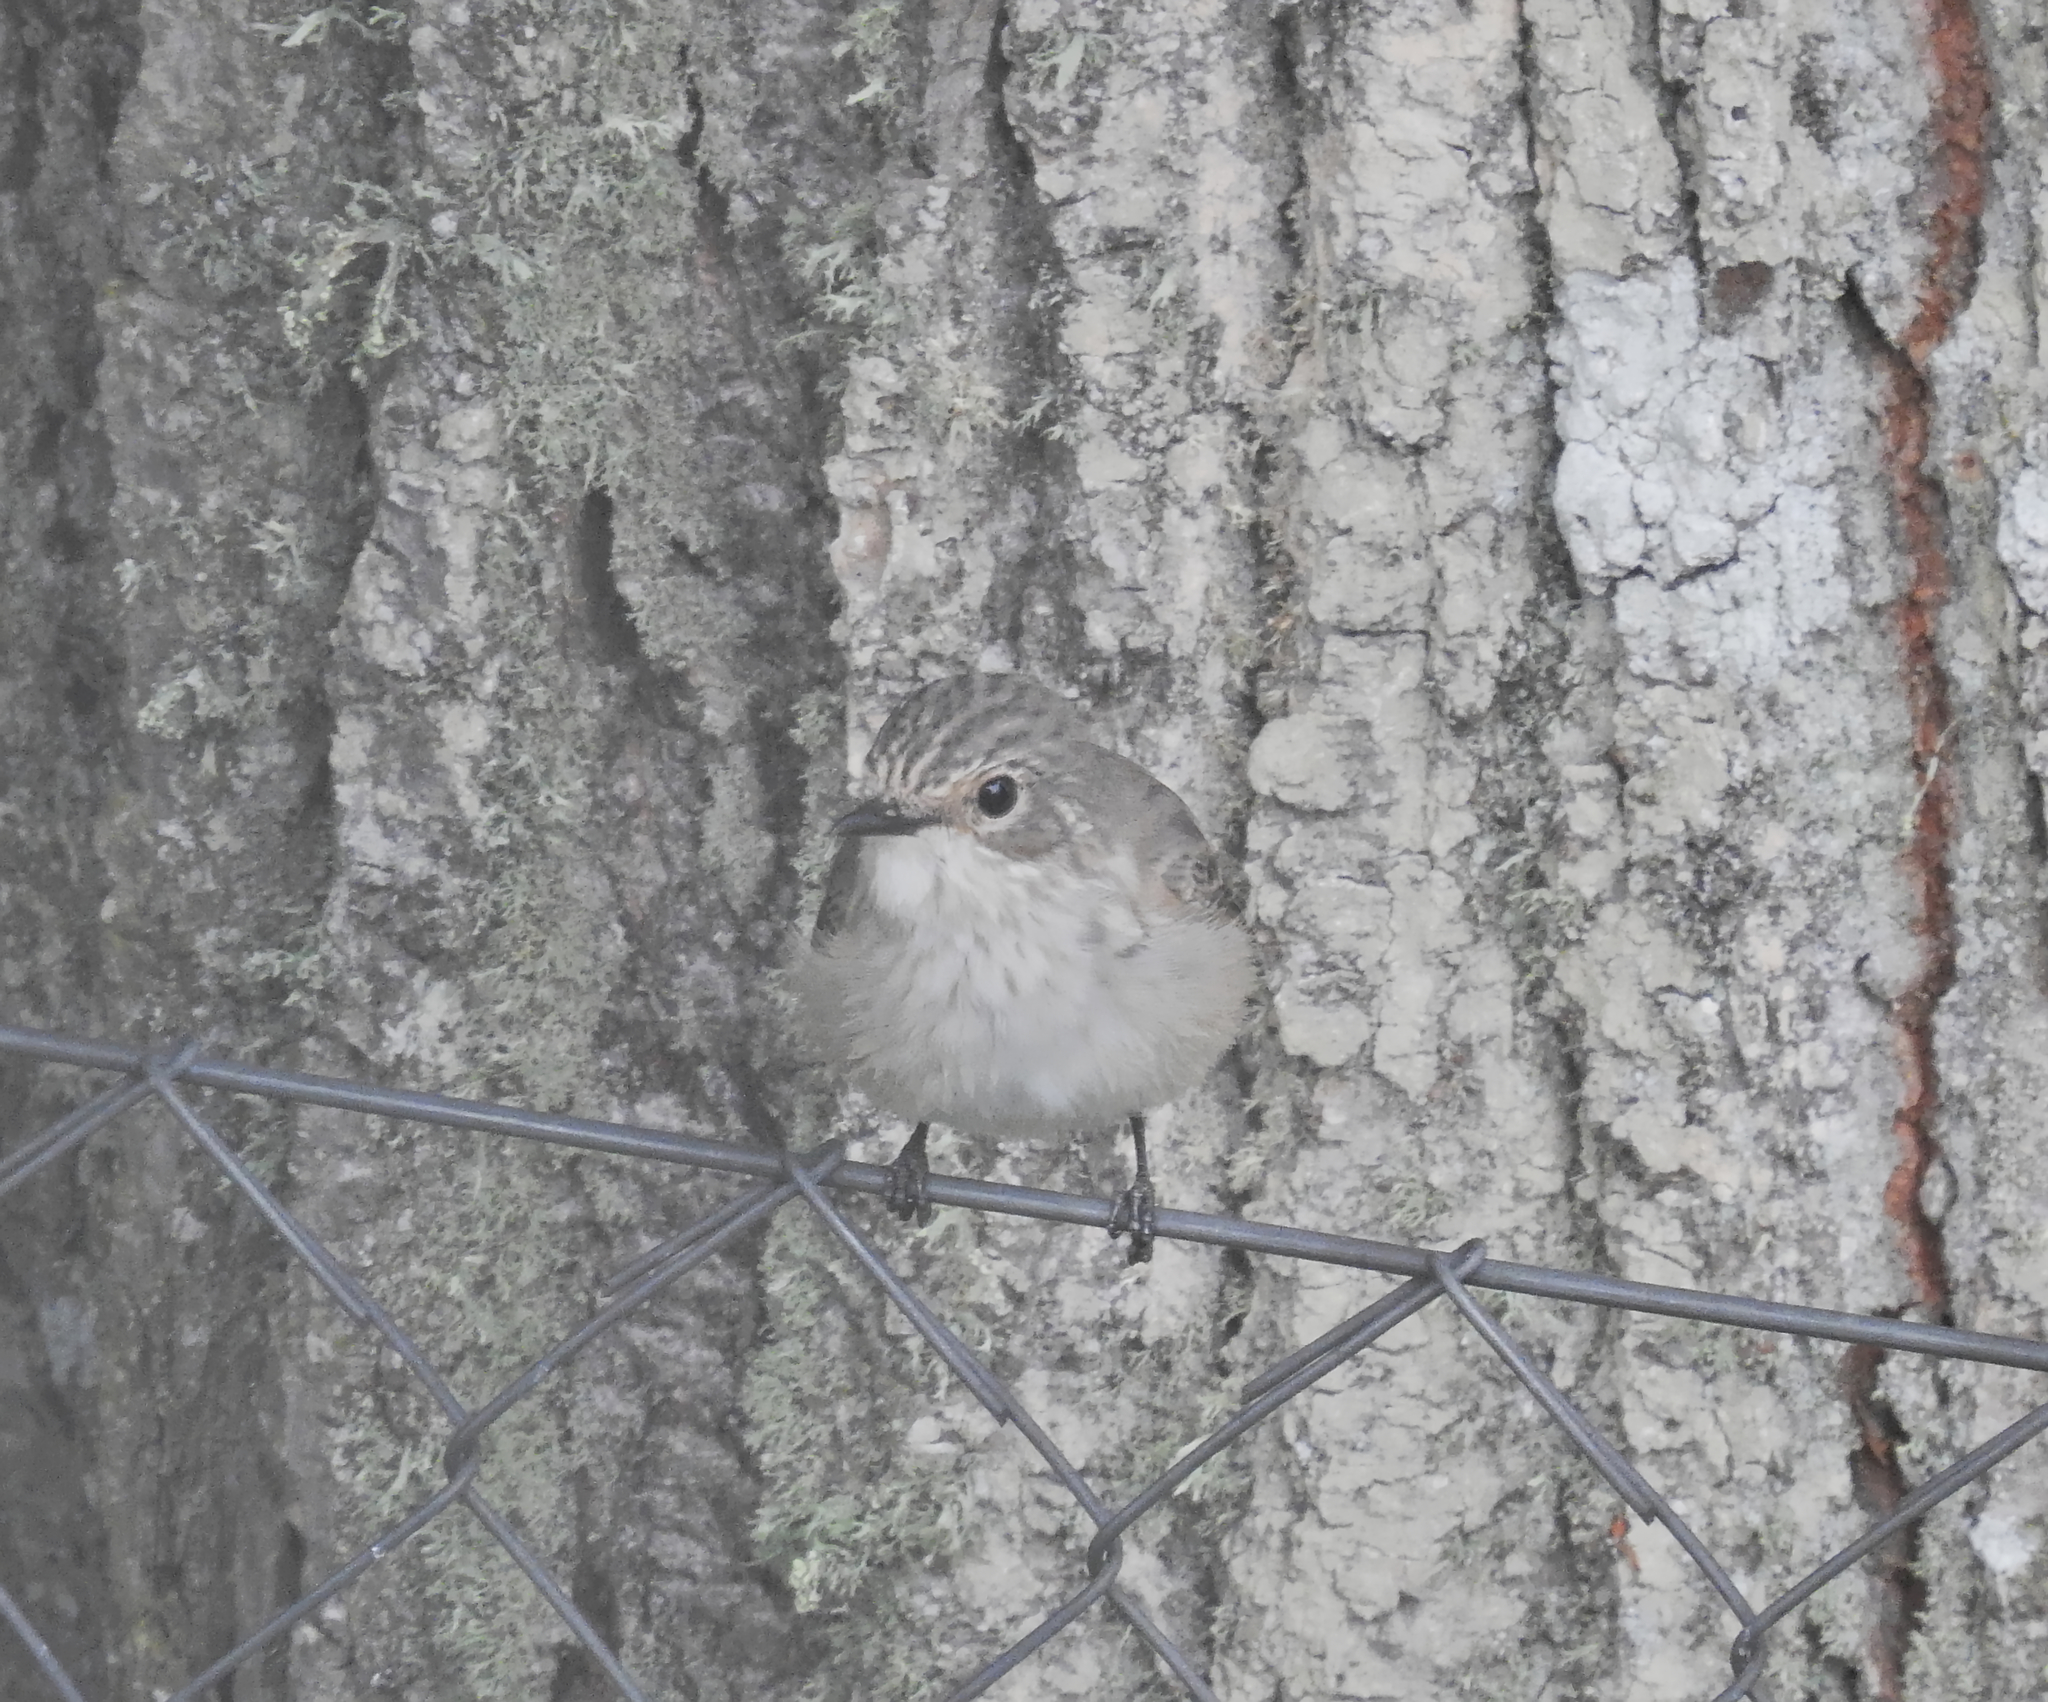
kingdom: Animalia
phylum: Chordata
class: Aves
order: Passeriformes
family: Muscicapidae
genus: Muscicapa
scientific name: Muscicapa striata
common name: Spotted flycatcher
